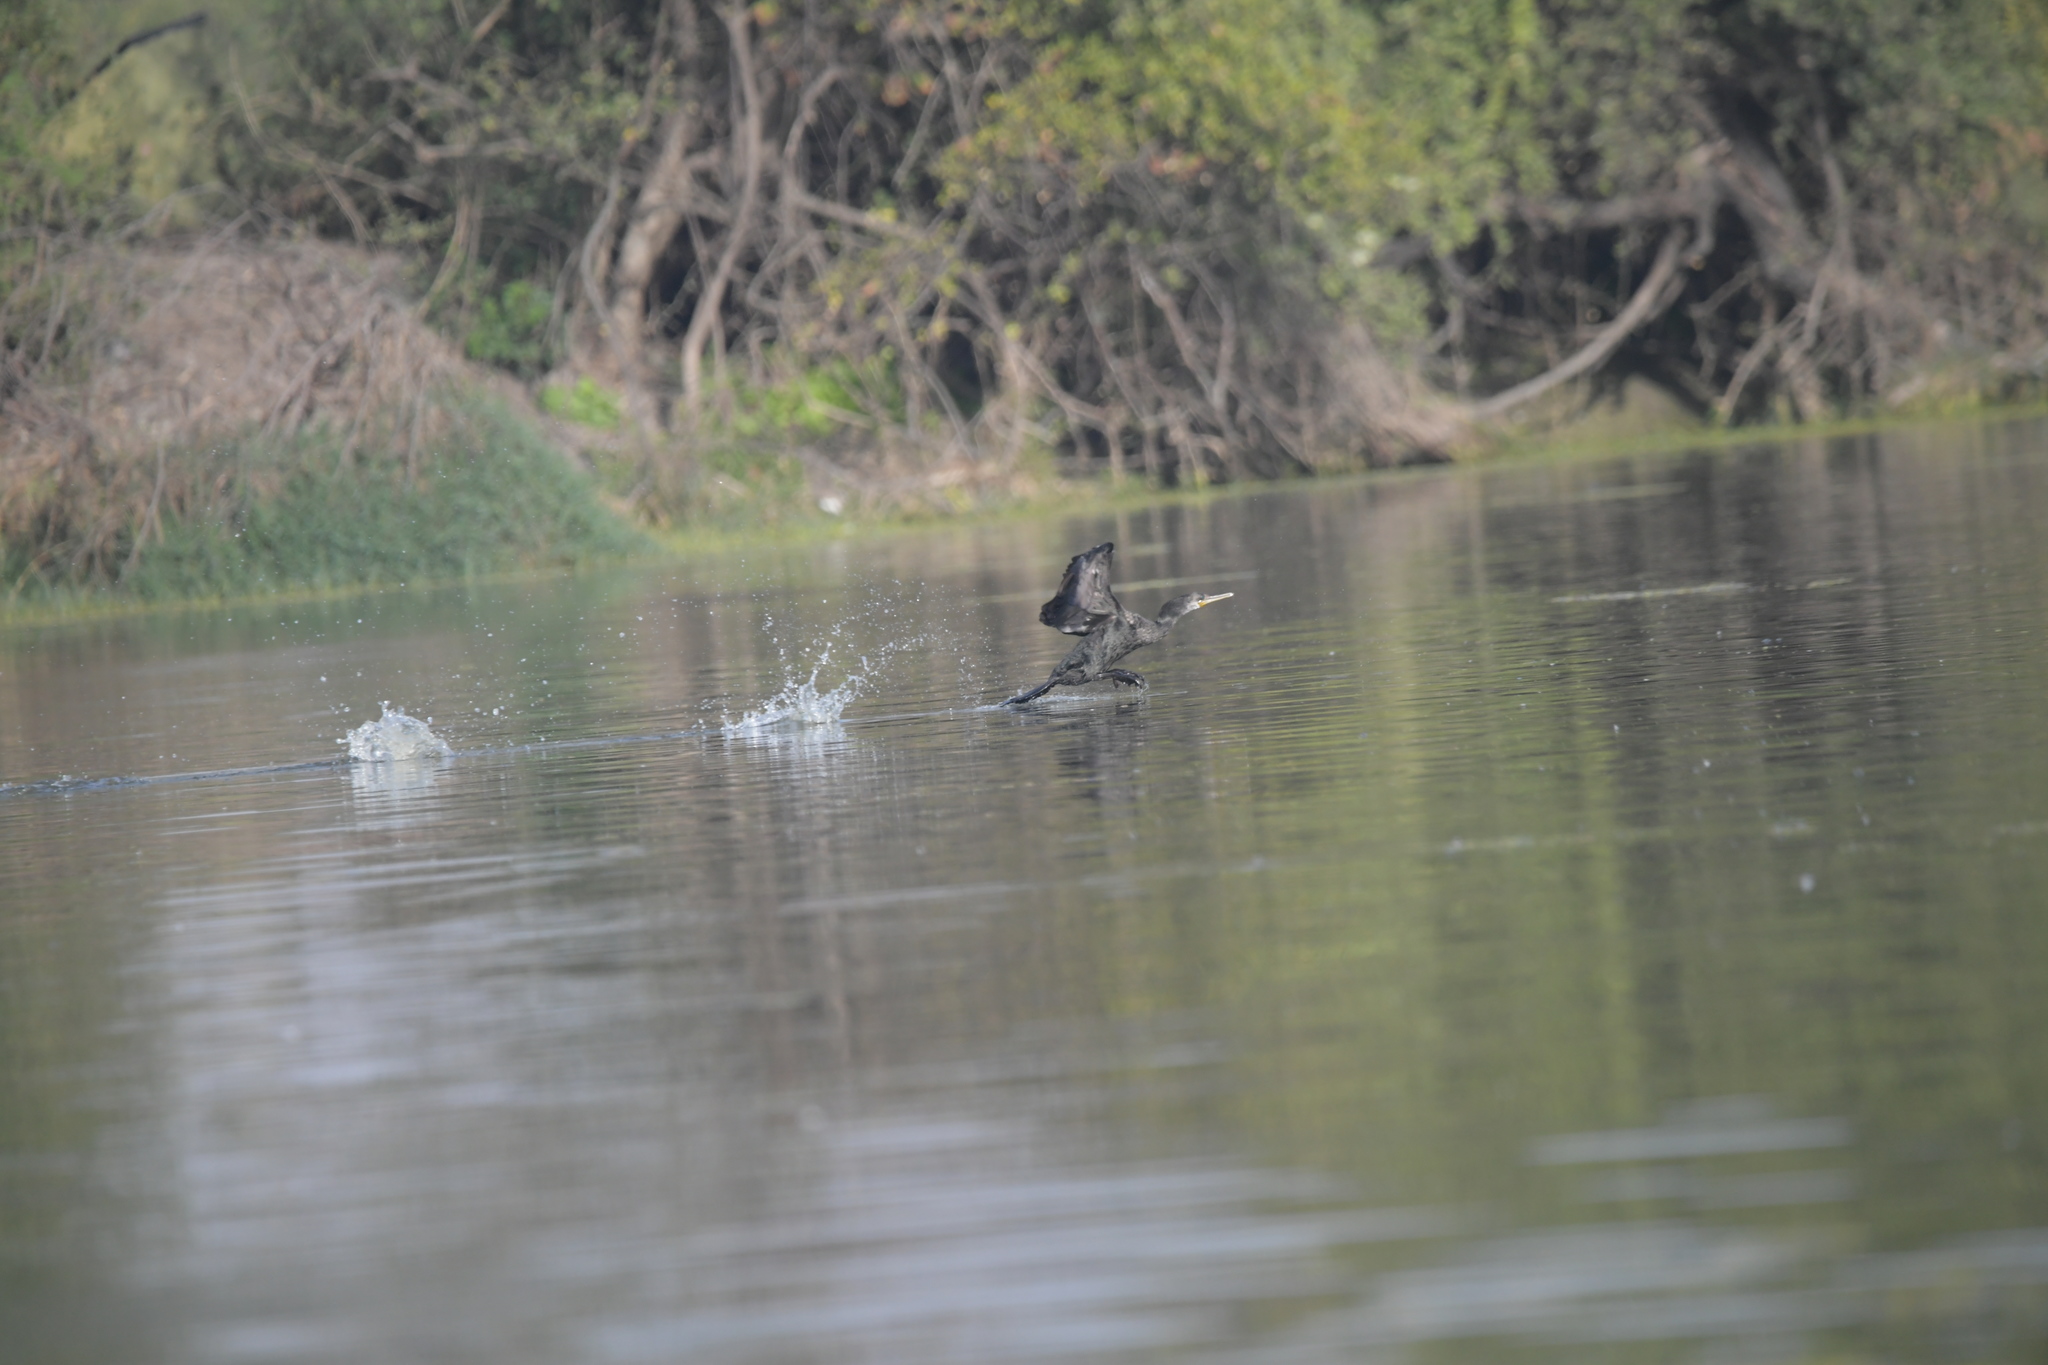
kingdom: Animalia
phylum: Chordata
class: Aves
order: Suliformes
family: Phalacrocoracidae
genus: Phalacrocorax
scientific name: Phalacrocorax fuscicollis
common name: Indian cormorant
